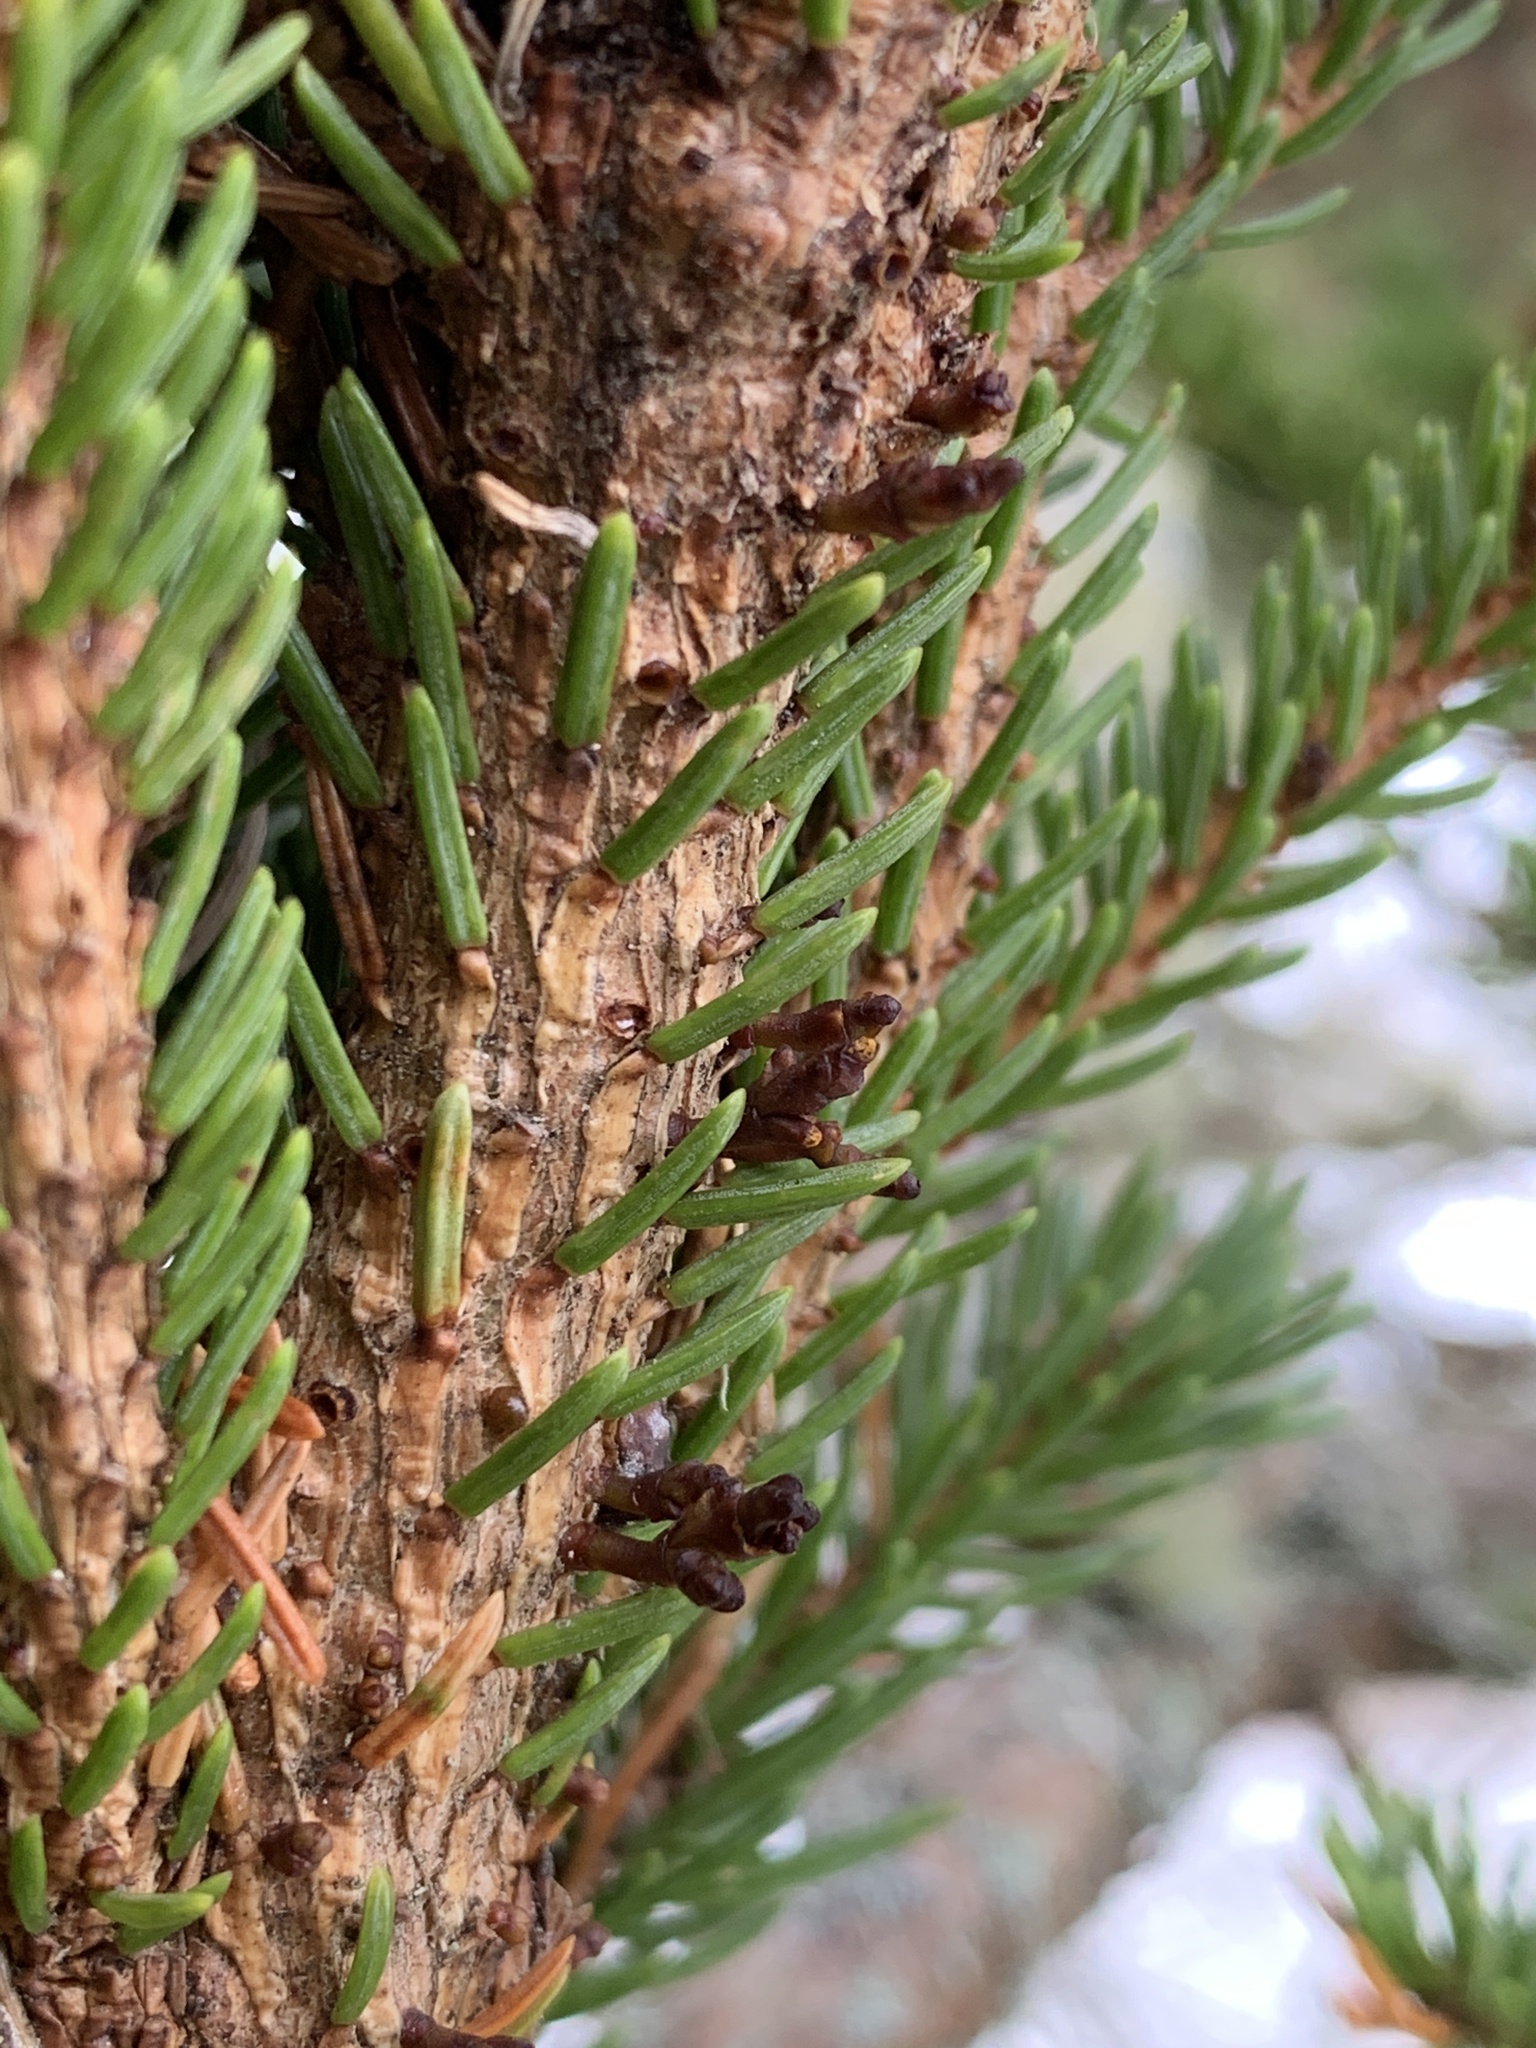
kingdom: Plantae
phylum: Tracheophyta
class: Magnoliopsida
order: Santalales
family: Viscaceae
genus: Arceuthobium
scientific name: Arceuthobium pusillum
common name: Dwarf-mistletoe
